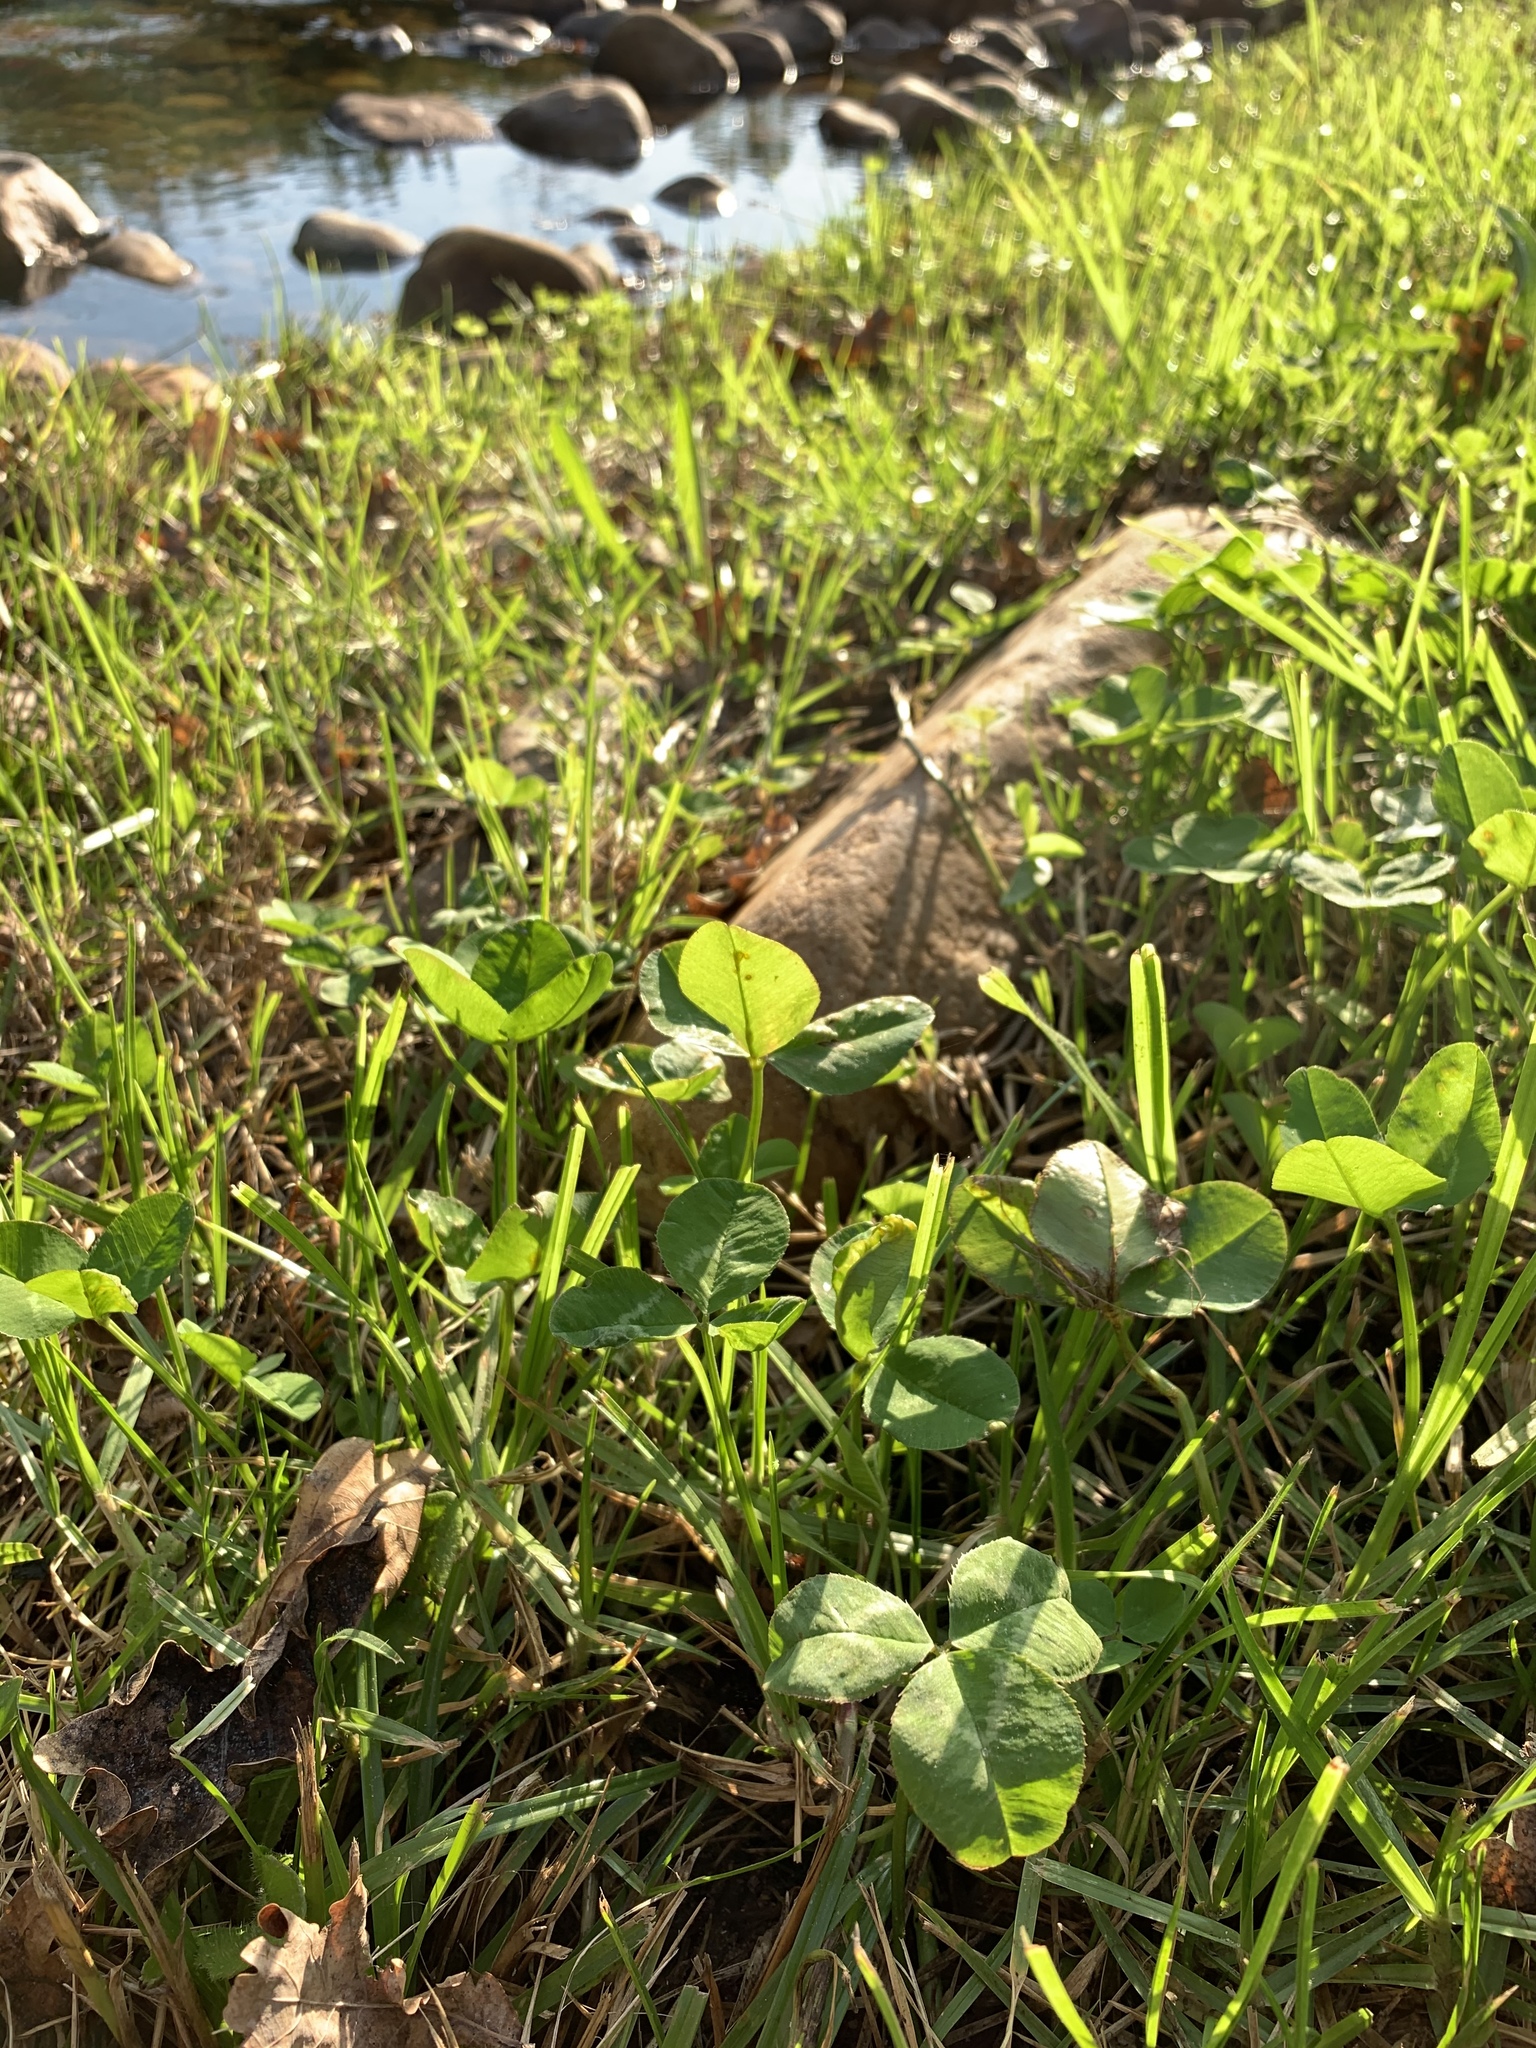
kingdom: Plantae
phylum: Tracheophyta
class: Magnoliopsida
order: Fabales
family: Fabaceae
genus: Trifolium
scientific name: Trifolium repens
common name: White clover
